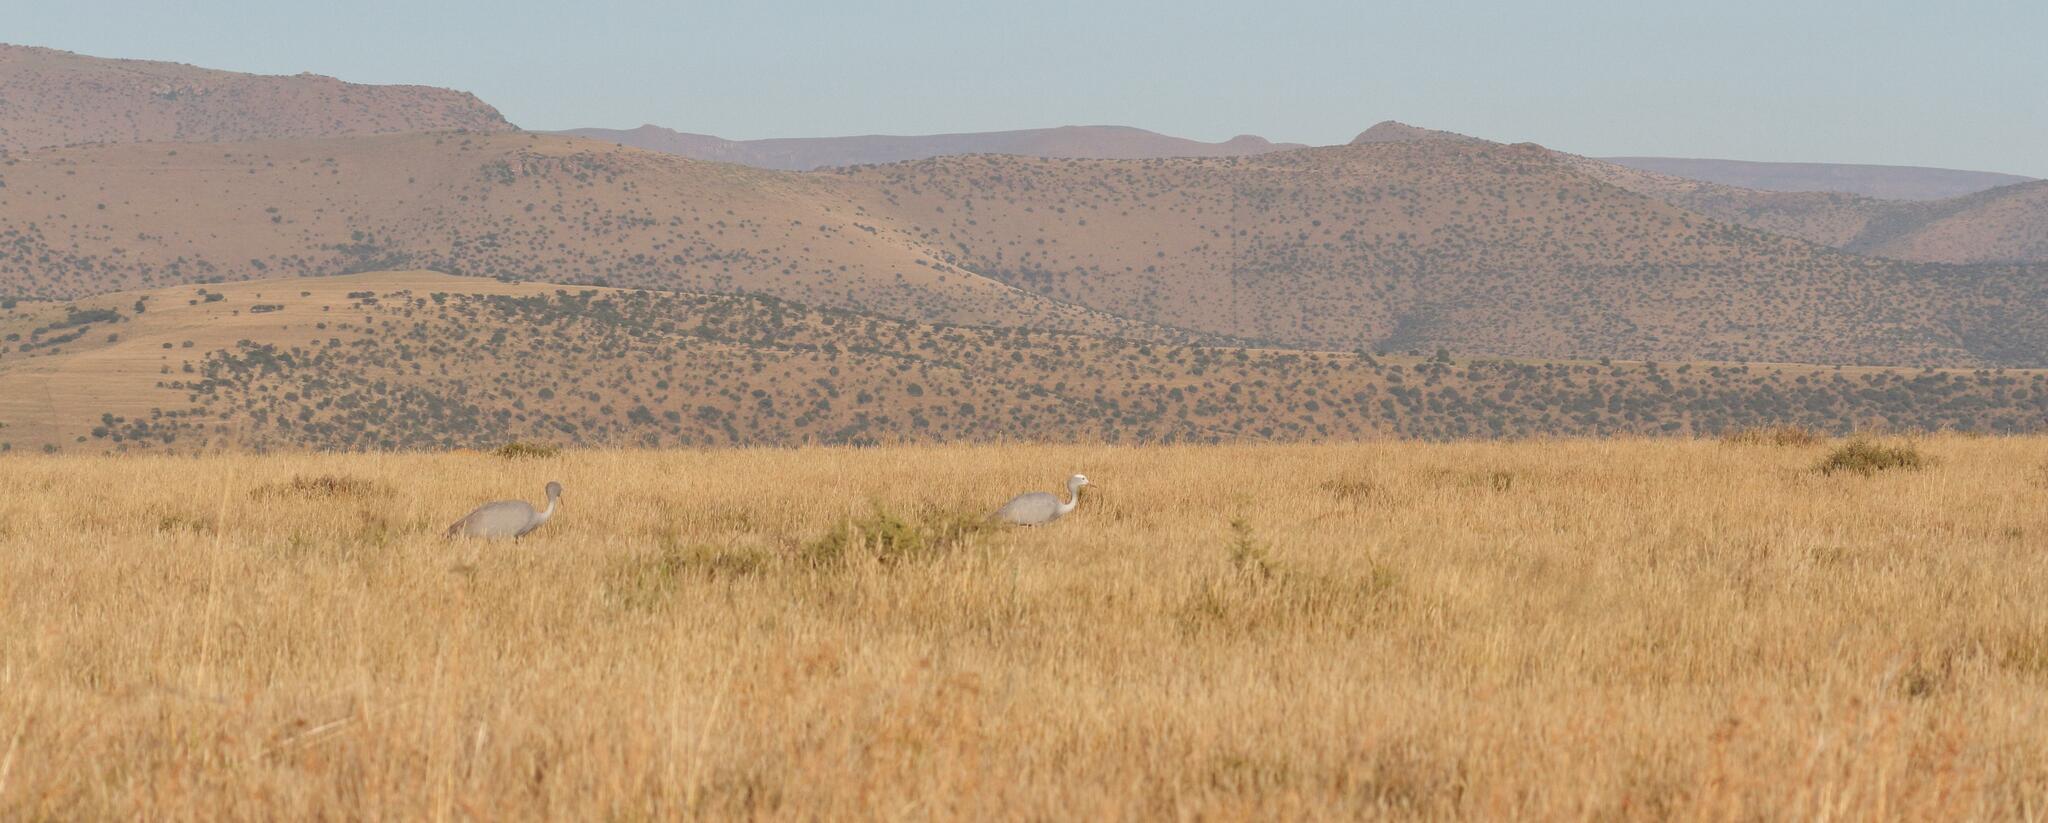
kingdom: Plantae
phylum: Tracheophyta
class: Liliopsida
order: Poales
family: Poaceae
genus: Themeda
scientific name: Themeda triandra
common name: Kangaroo grass
